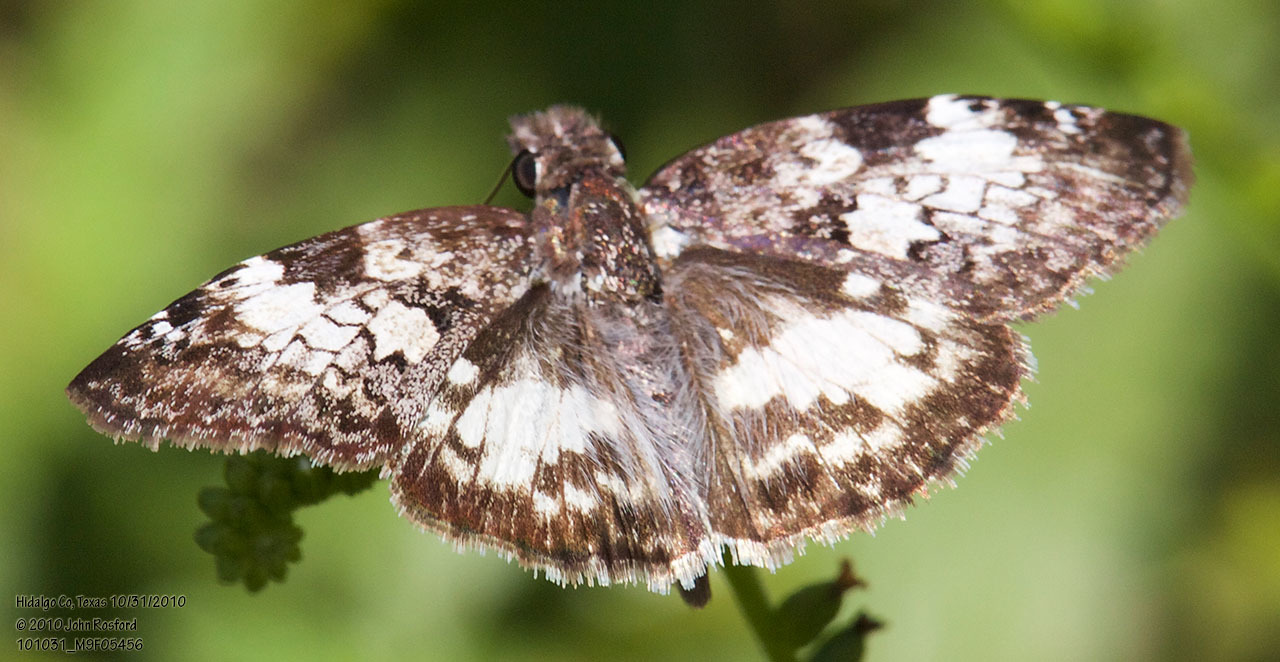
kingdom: Animalia
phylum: Arthropoda
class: Insecta
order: Lepidoptera
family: Hesperiidae
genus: Chiothion
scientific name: Chiothion georgina
